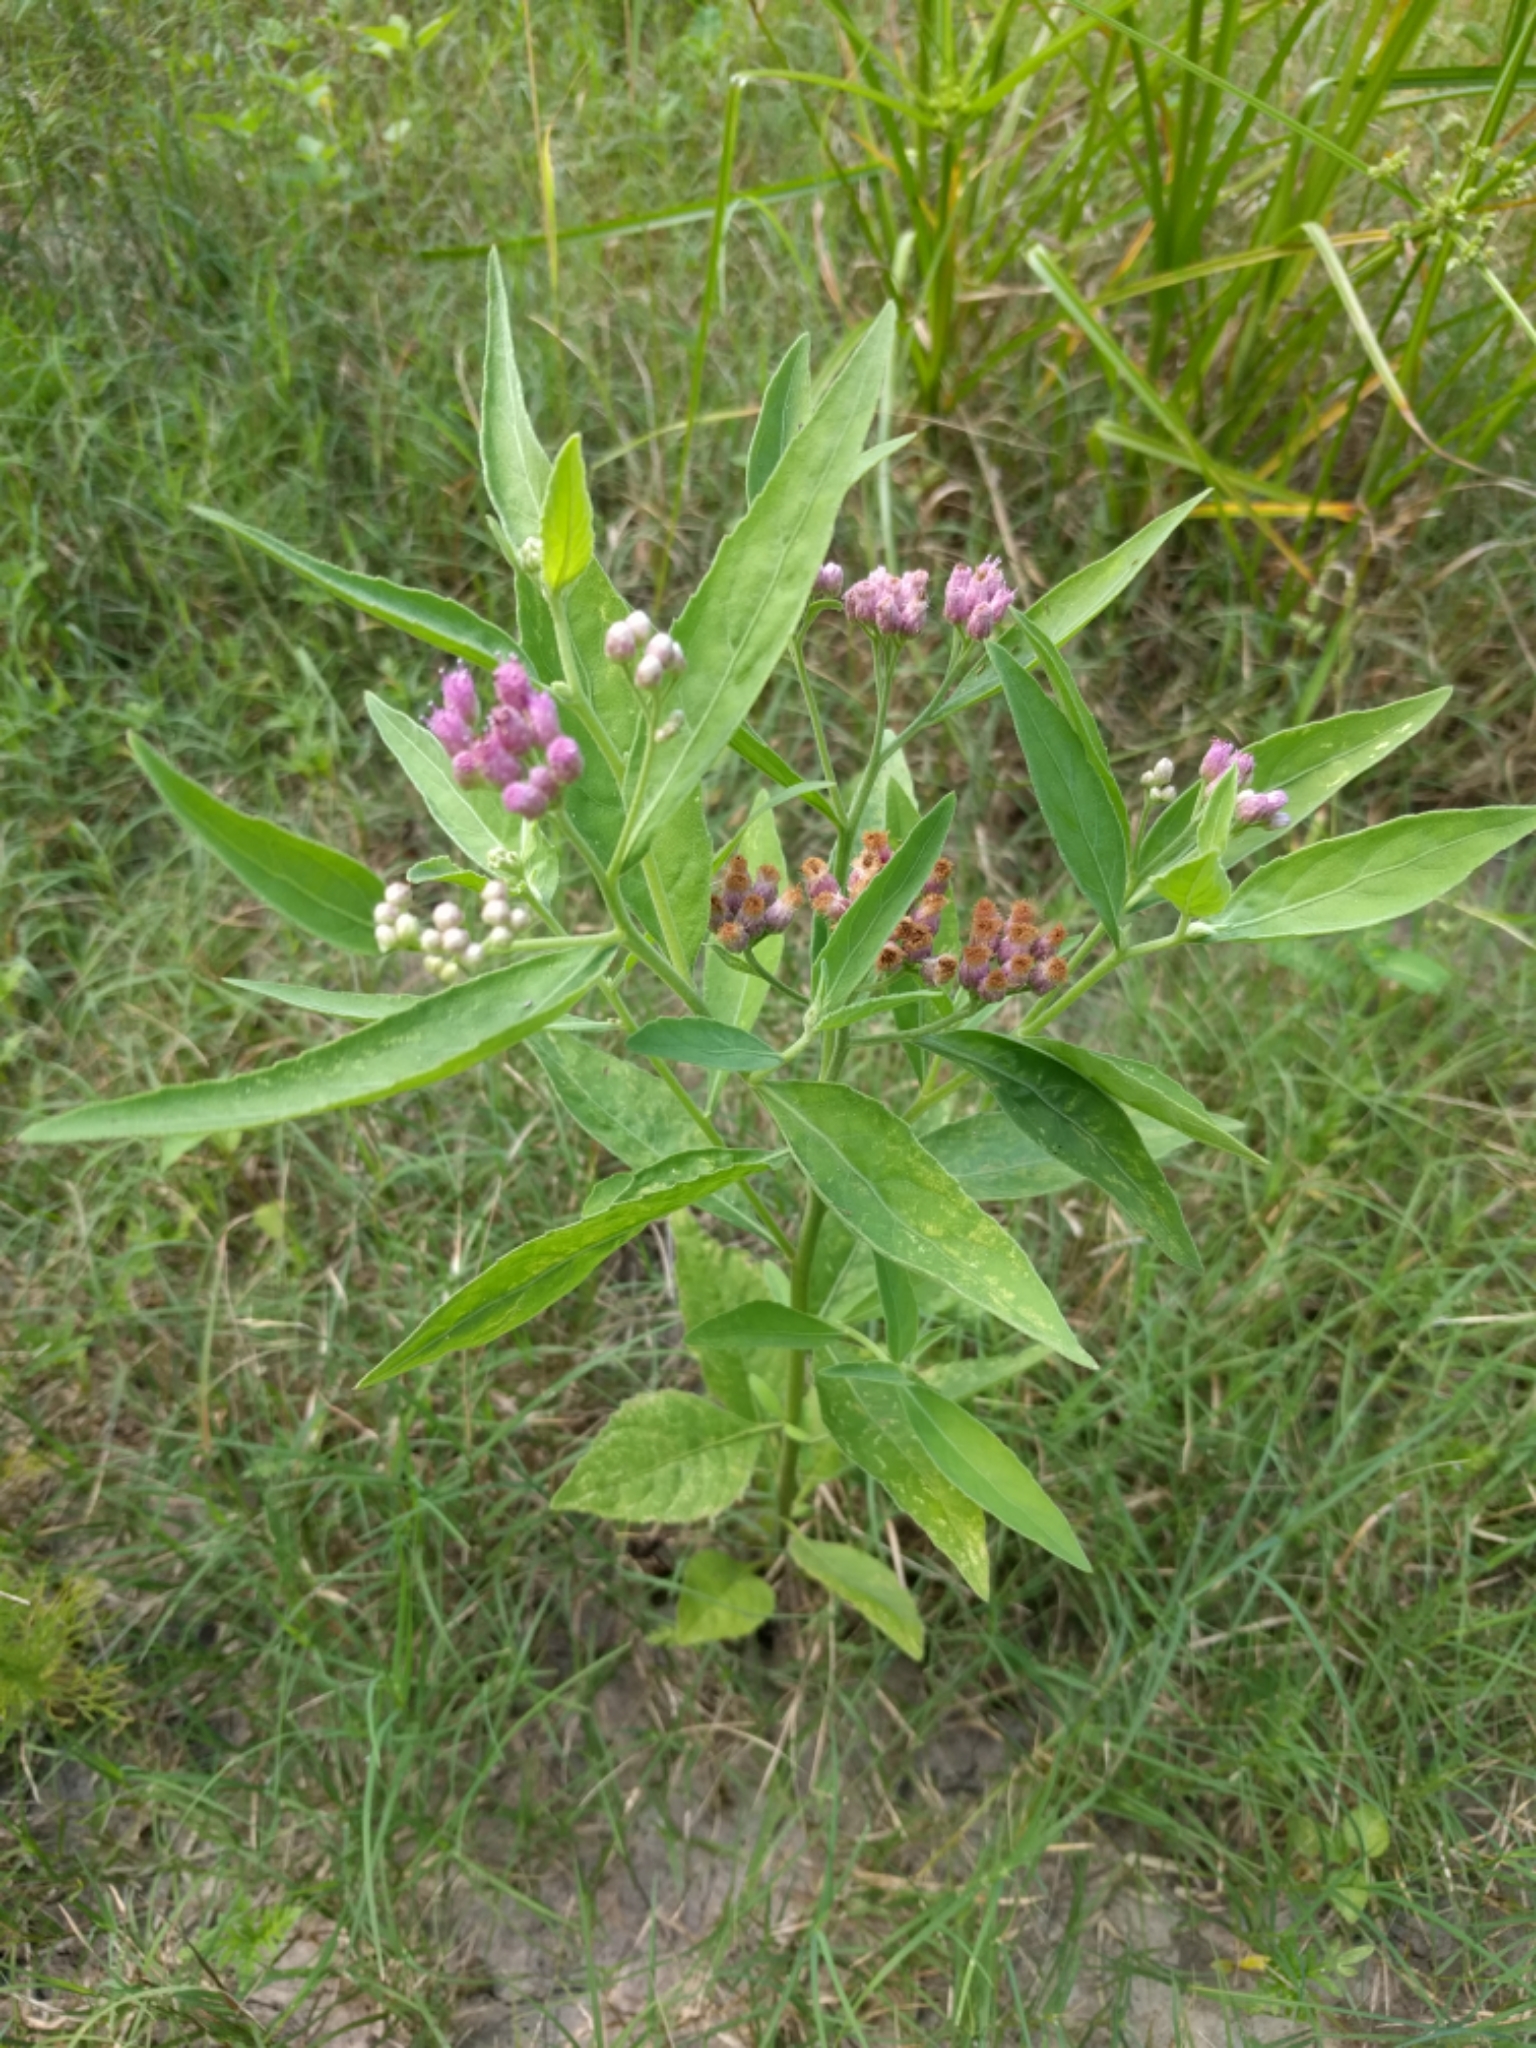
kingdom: Plantae
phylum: Tracheophyta
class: Magnoliopsida
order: Asterales
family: Asteraceae
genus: Pluchea
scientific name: Pluchea odorata
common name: Saltmarsh fleabane
